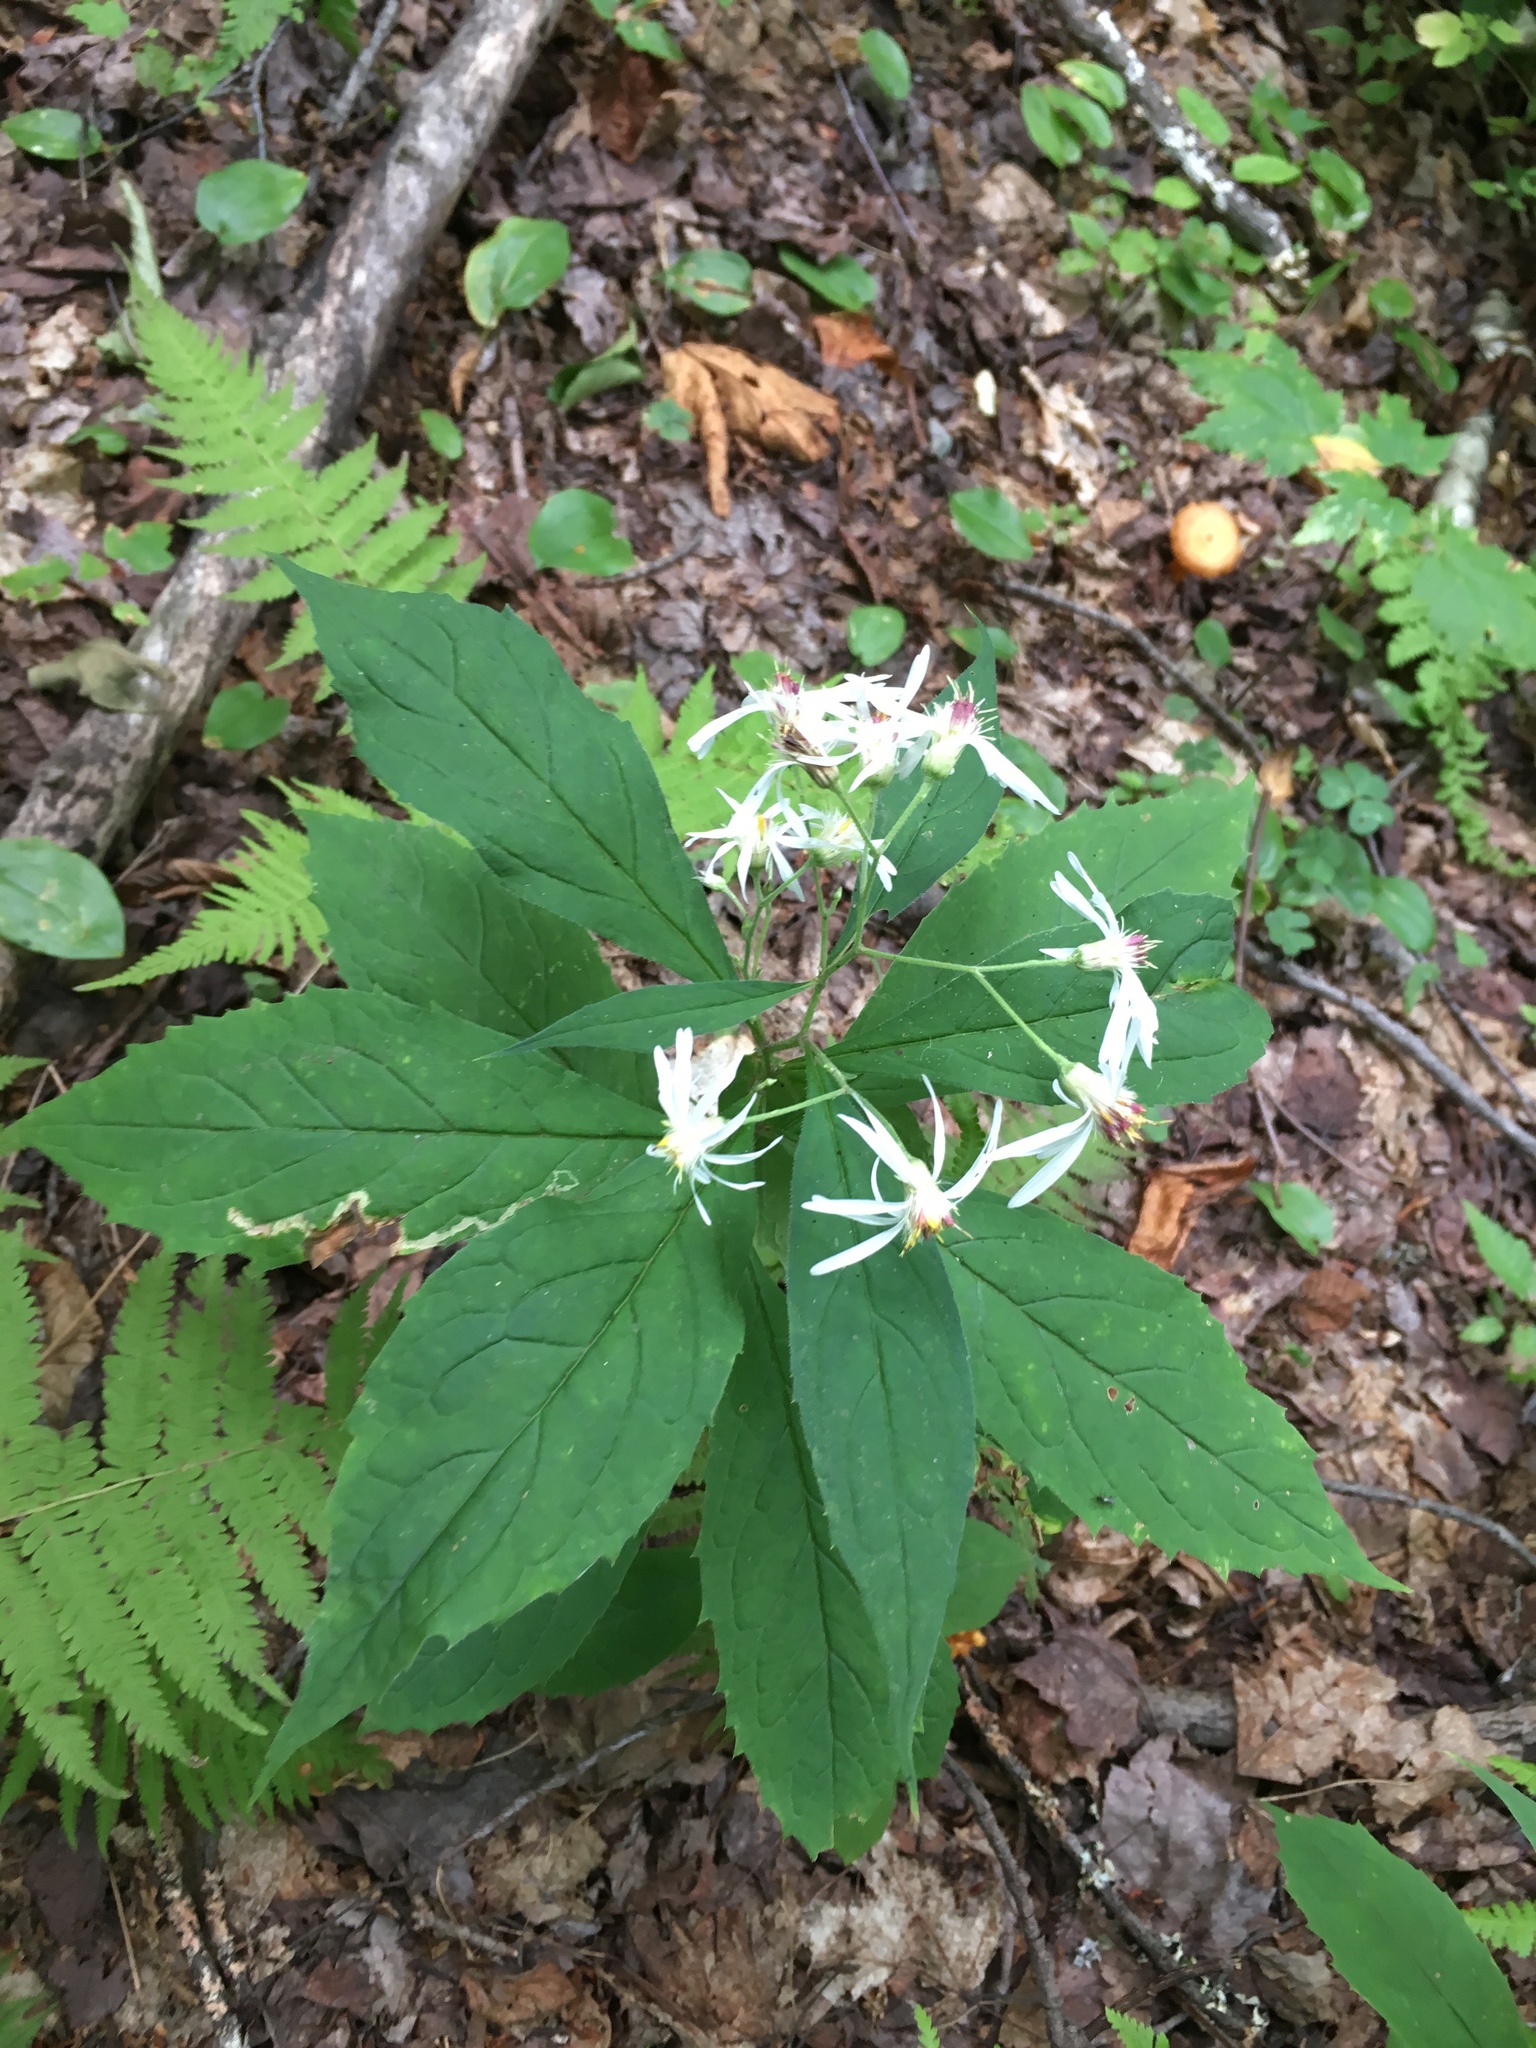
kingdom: Plantae
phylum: Tracheophyta
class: Magnoliopsida
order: Asterales
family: Asteraceae
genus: Oclemena
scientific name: Oclemena acuminata
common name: Mountain aster
